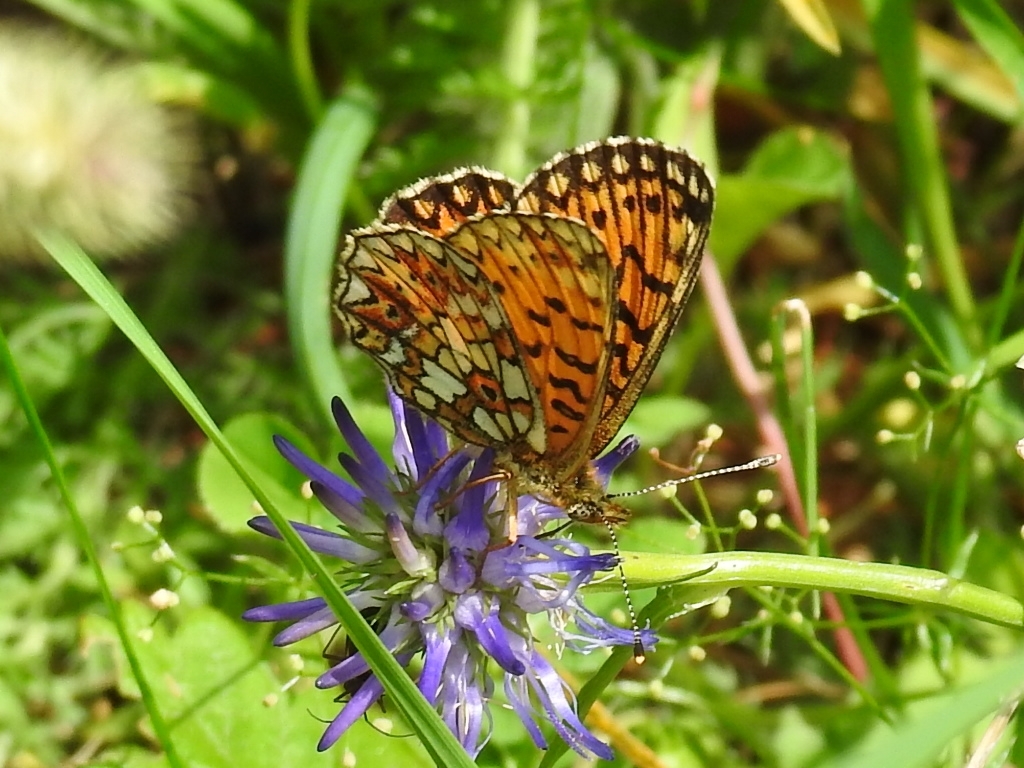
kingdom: Animalia
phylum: Arthropoda
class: Insecta
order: Lepidoptera
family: Nymphalidae
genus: Boloria
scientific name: Boloria selene
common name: Small pearl-bordered fritillary
